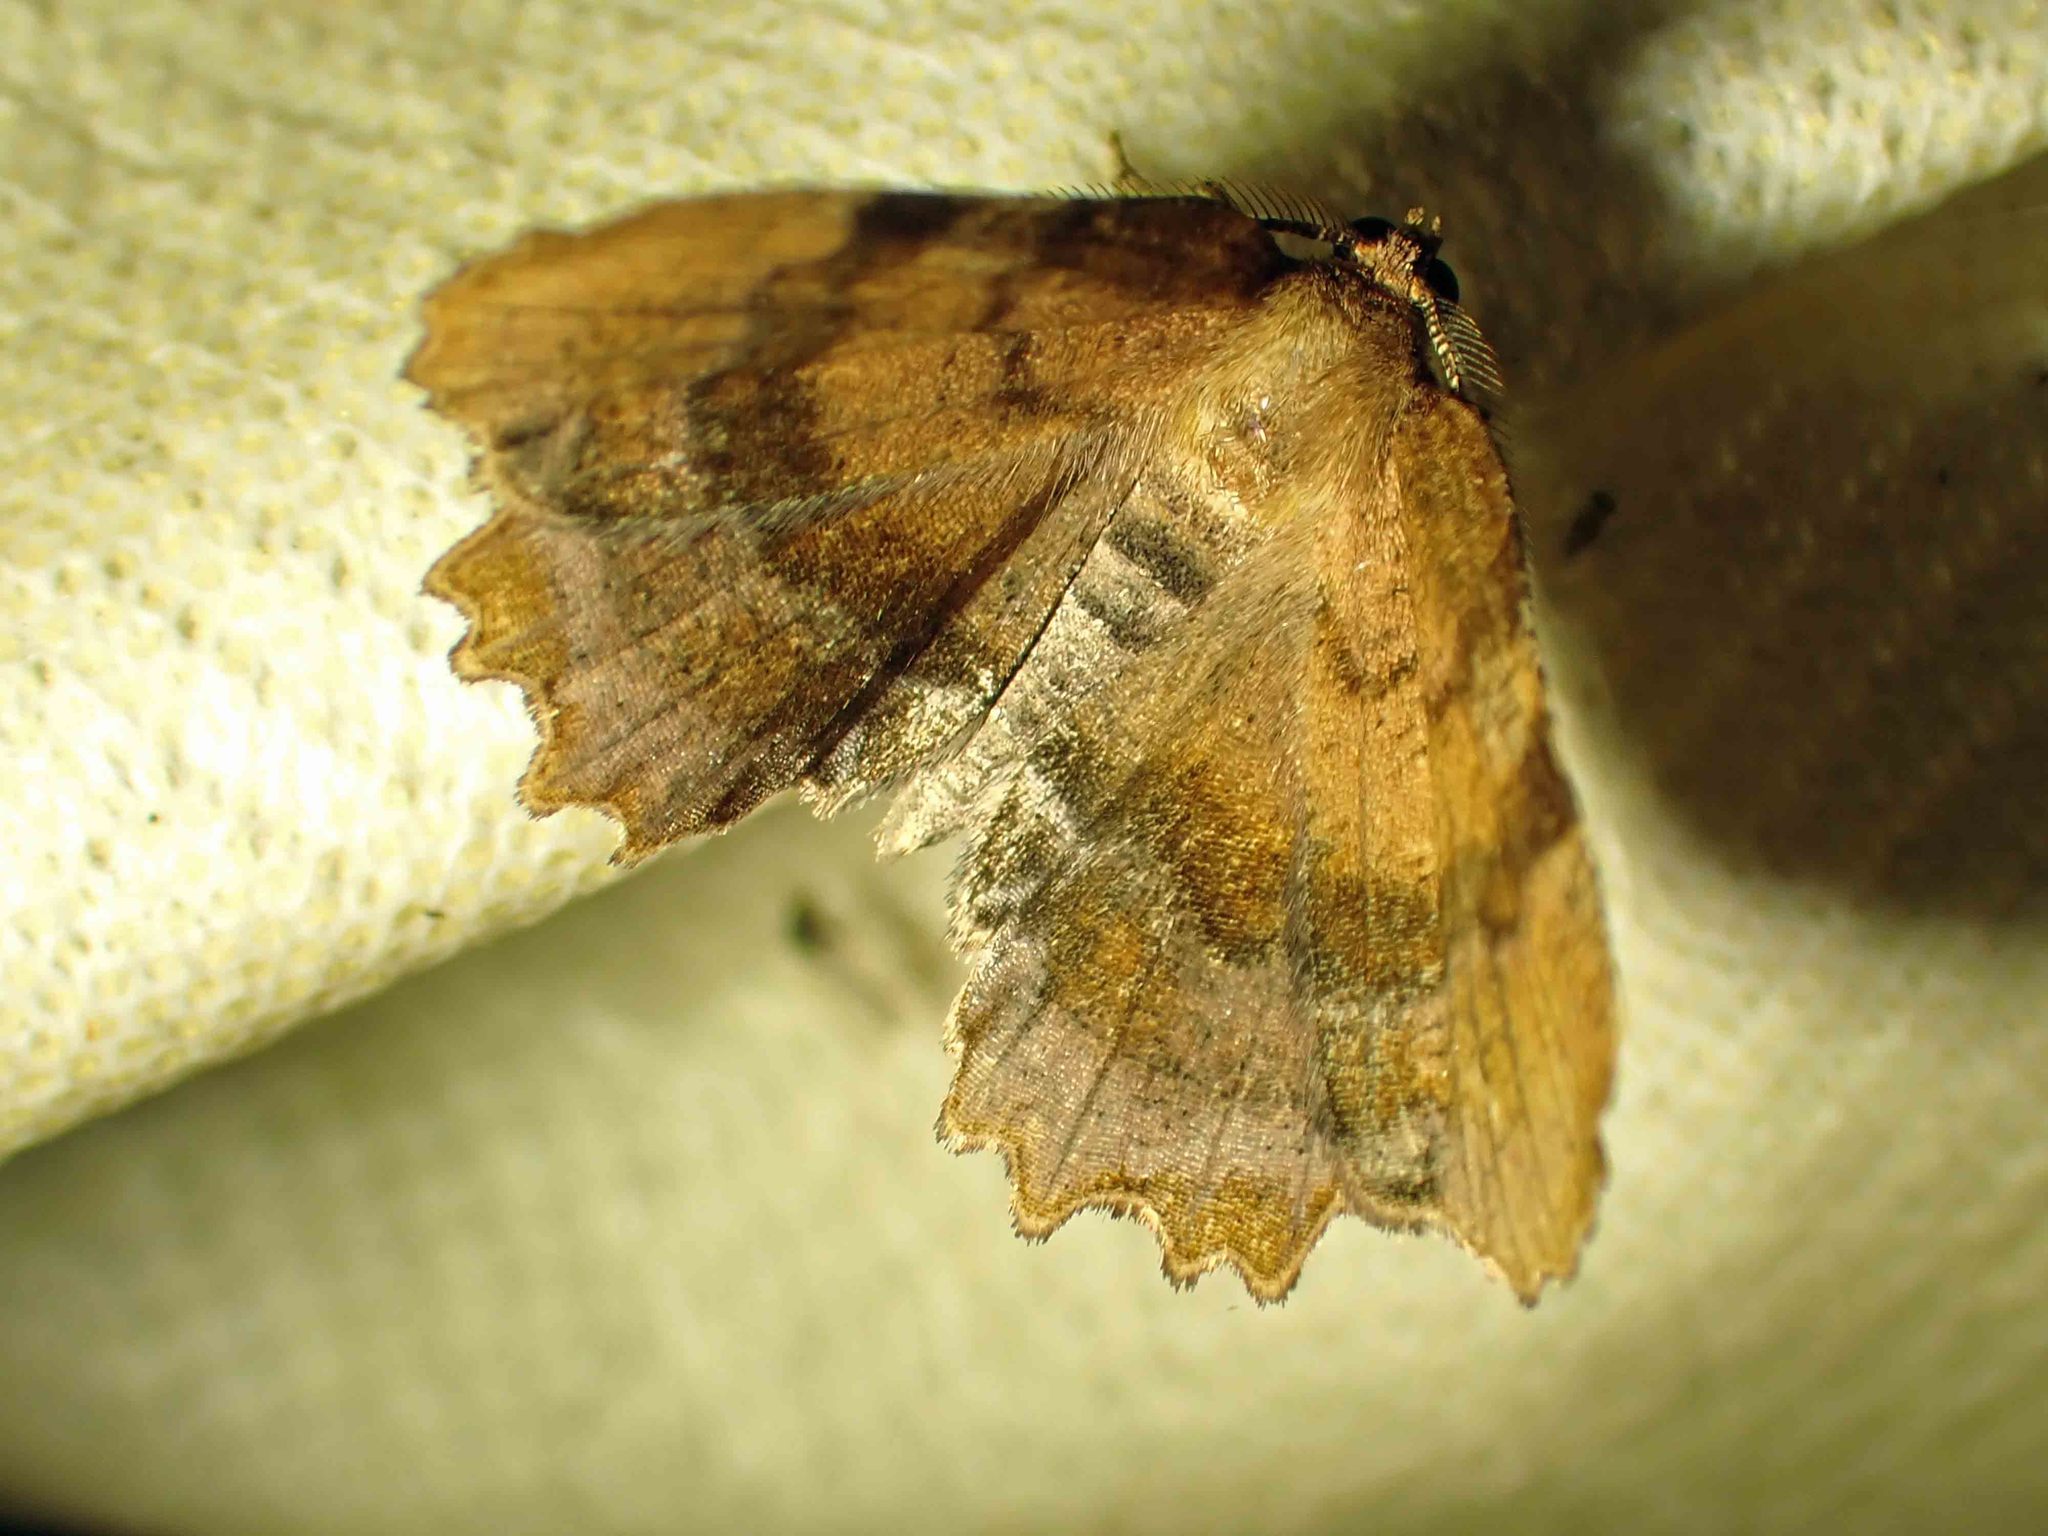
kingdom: Animalia
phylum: Arthropoda
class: Insecta
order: Lepidoptera
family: Geometridae
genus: Cepphis
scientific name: Cepphis armataria
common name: Scallop moth
